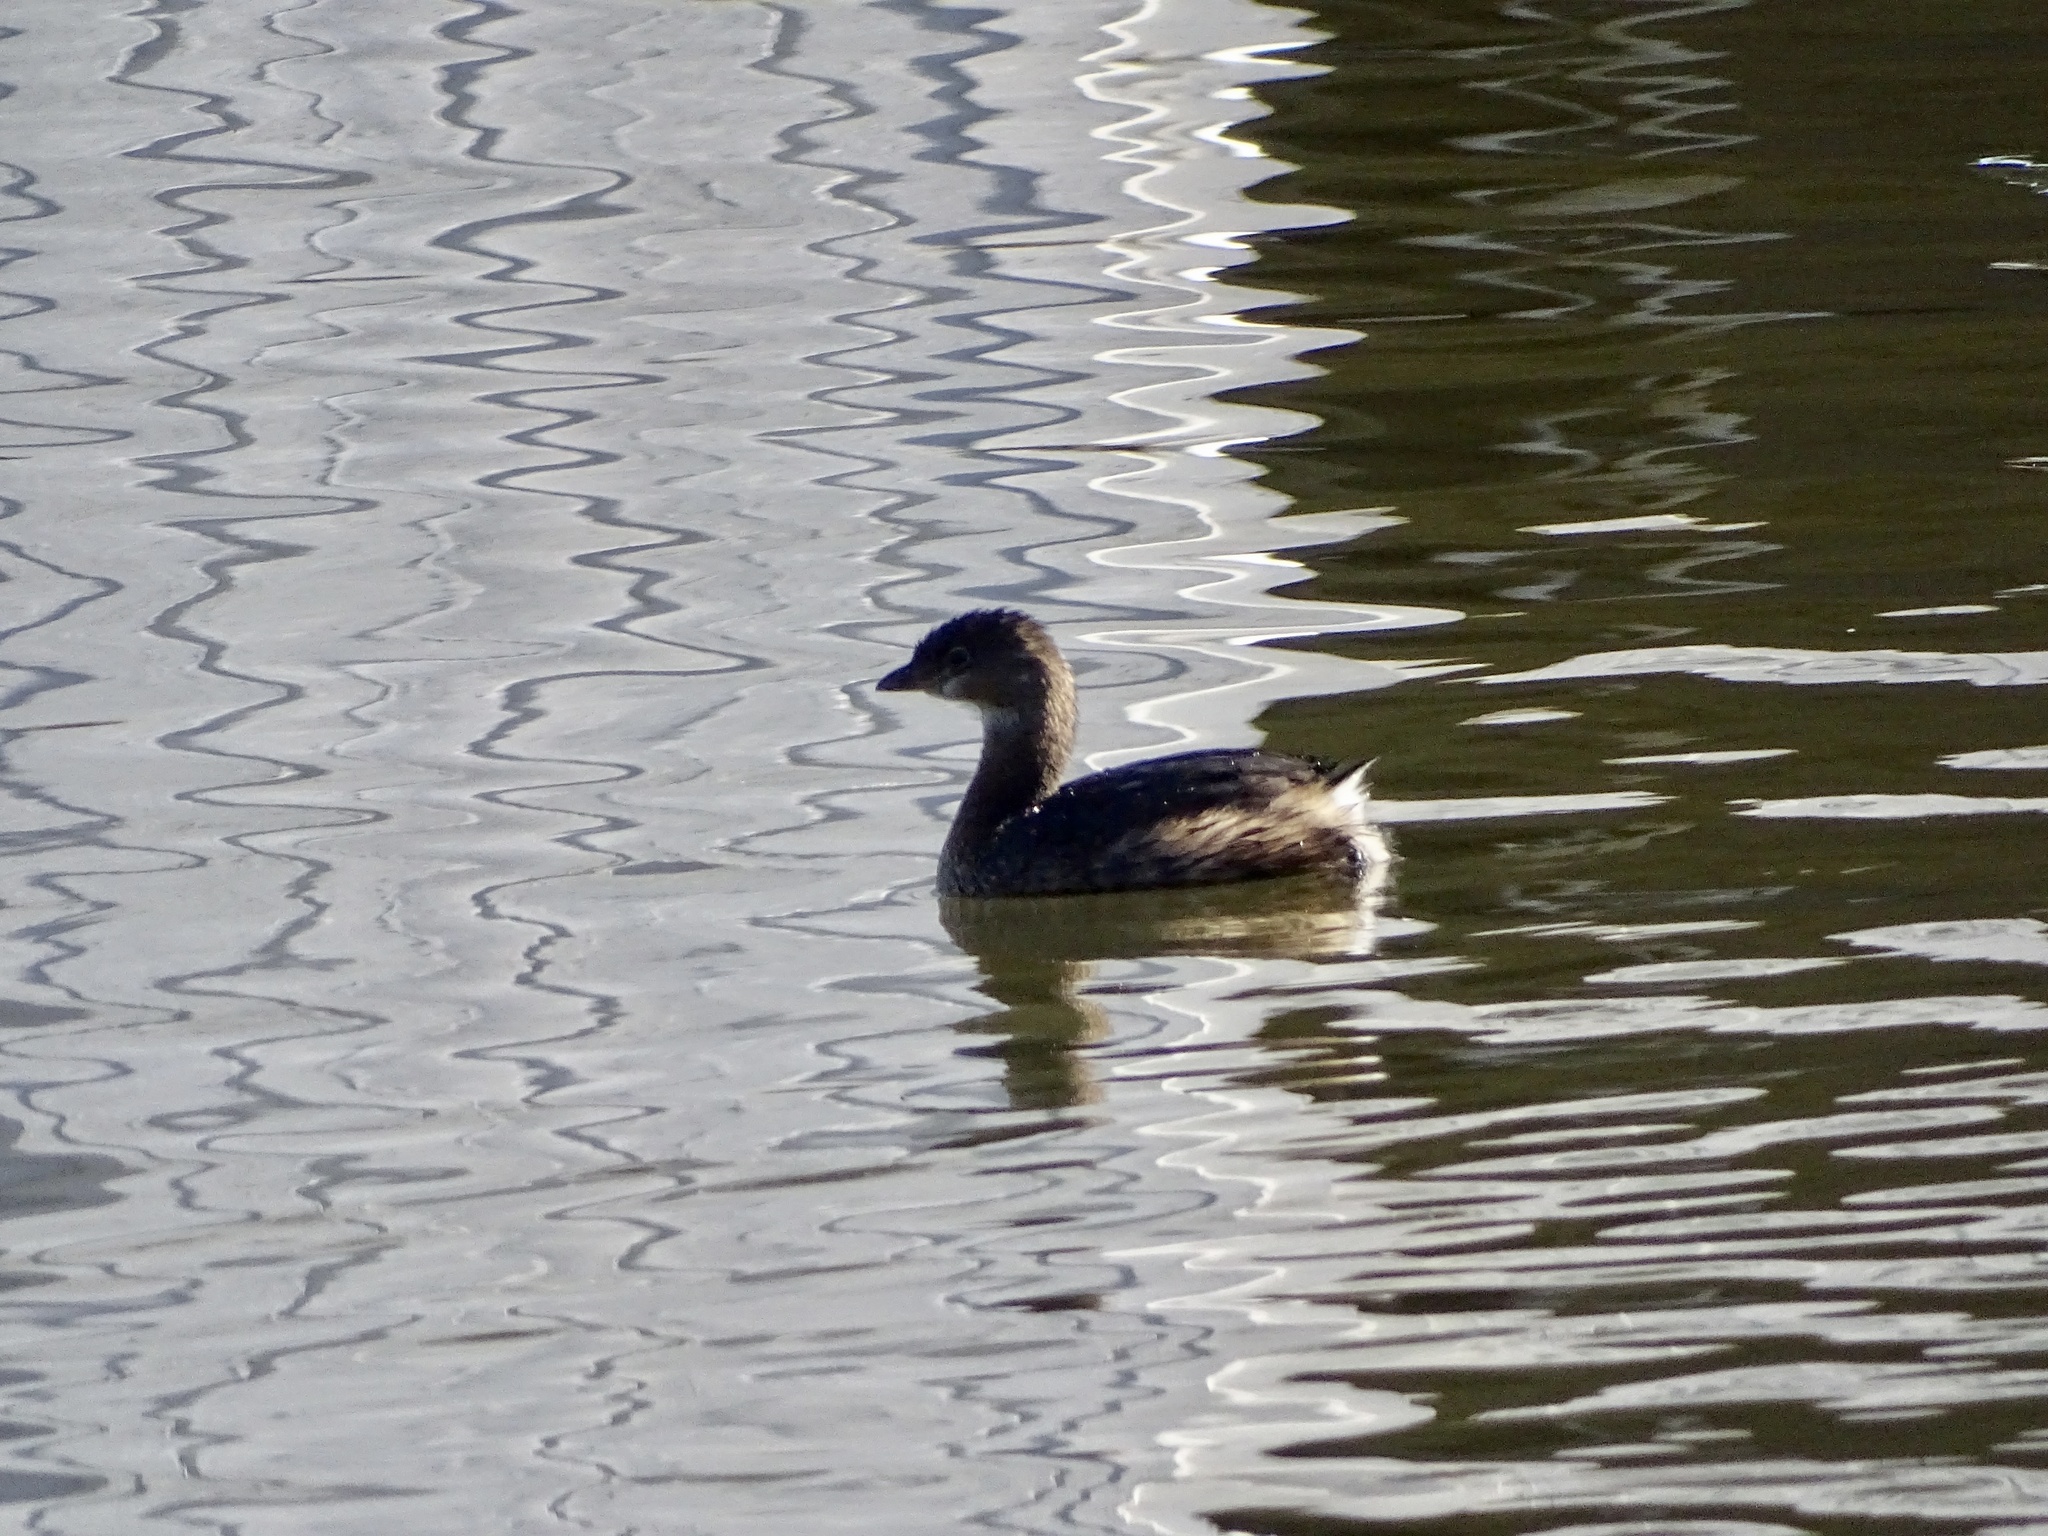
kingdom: Animalia
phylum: Chordata
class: Aves
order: Podicipediformes
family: Podicipedidae
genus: Podilymbus
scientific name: Podilymbus podiceps
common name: Pied-billed grebe
